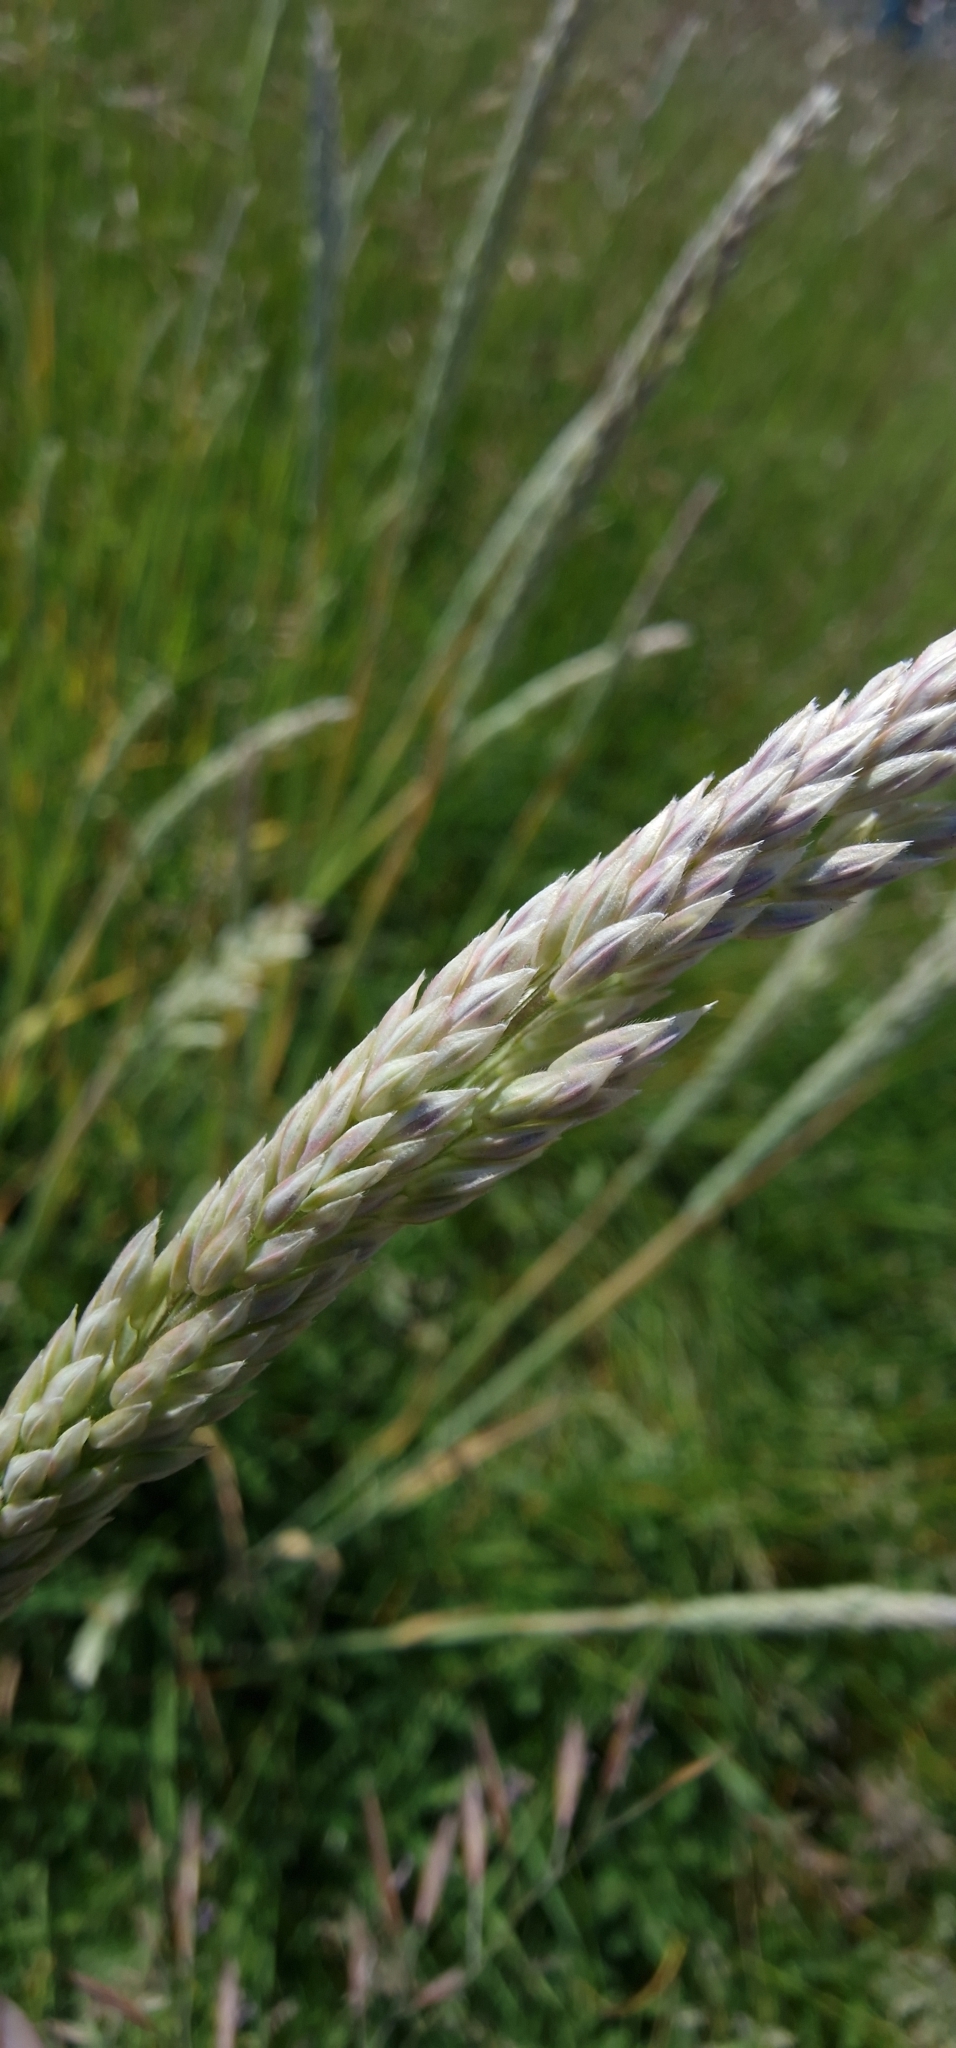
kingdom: Plantae
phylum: Tracheophyta
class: Liliopsida
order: Poales
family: Poaceae
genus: Holcus
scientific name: Holcus lanatus
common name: Yorkshire-fog
